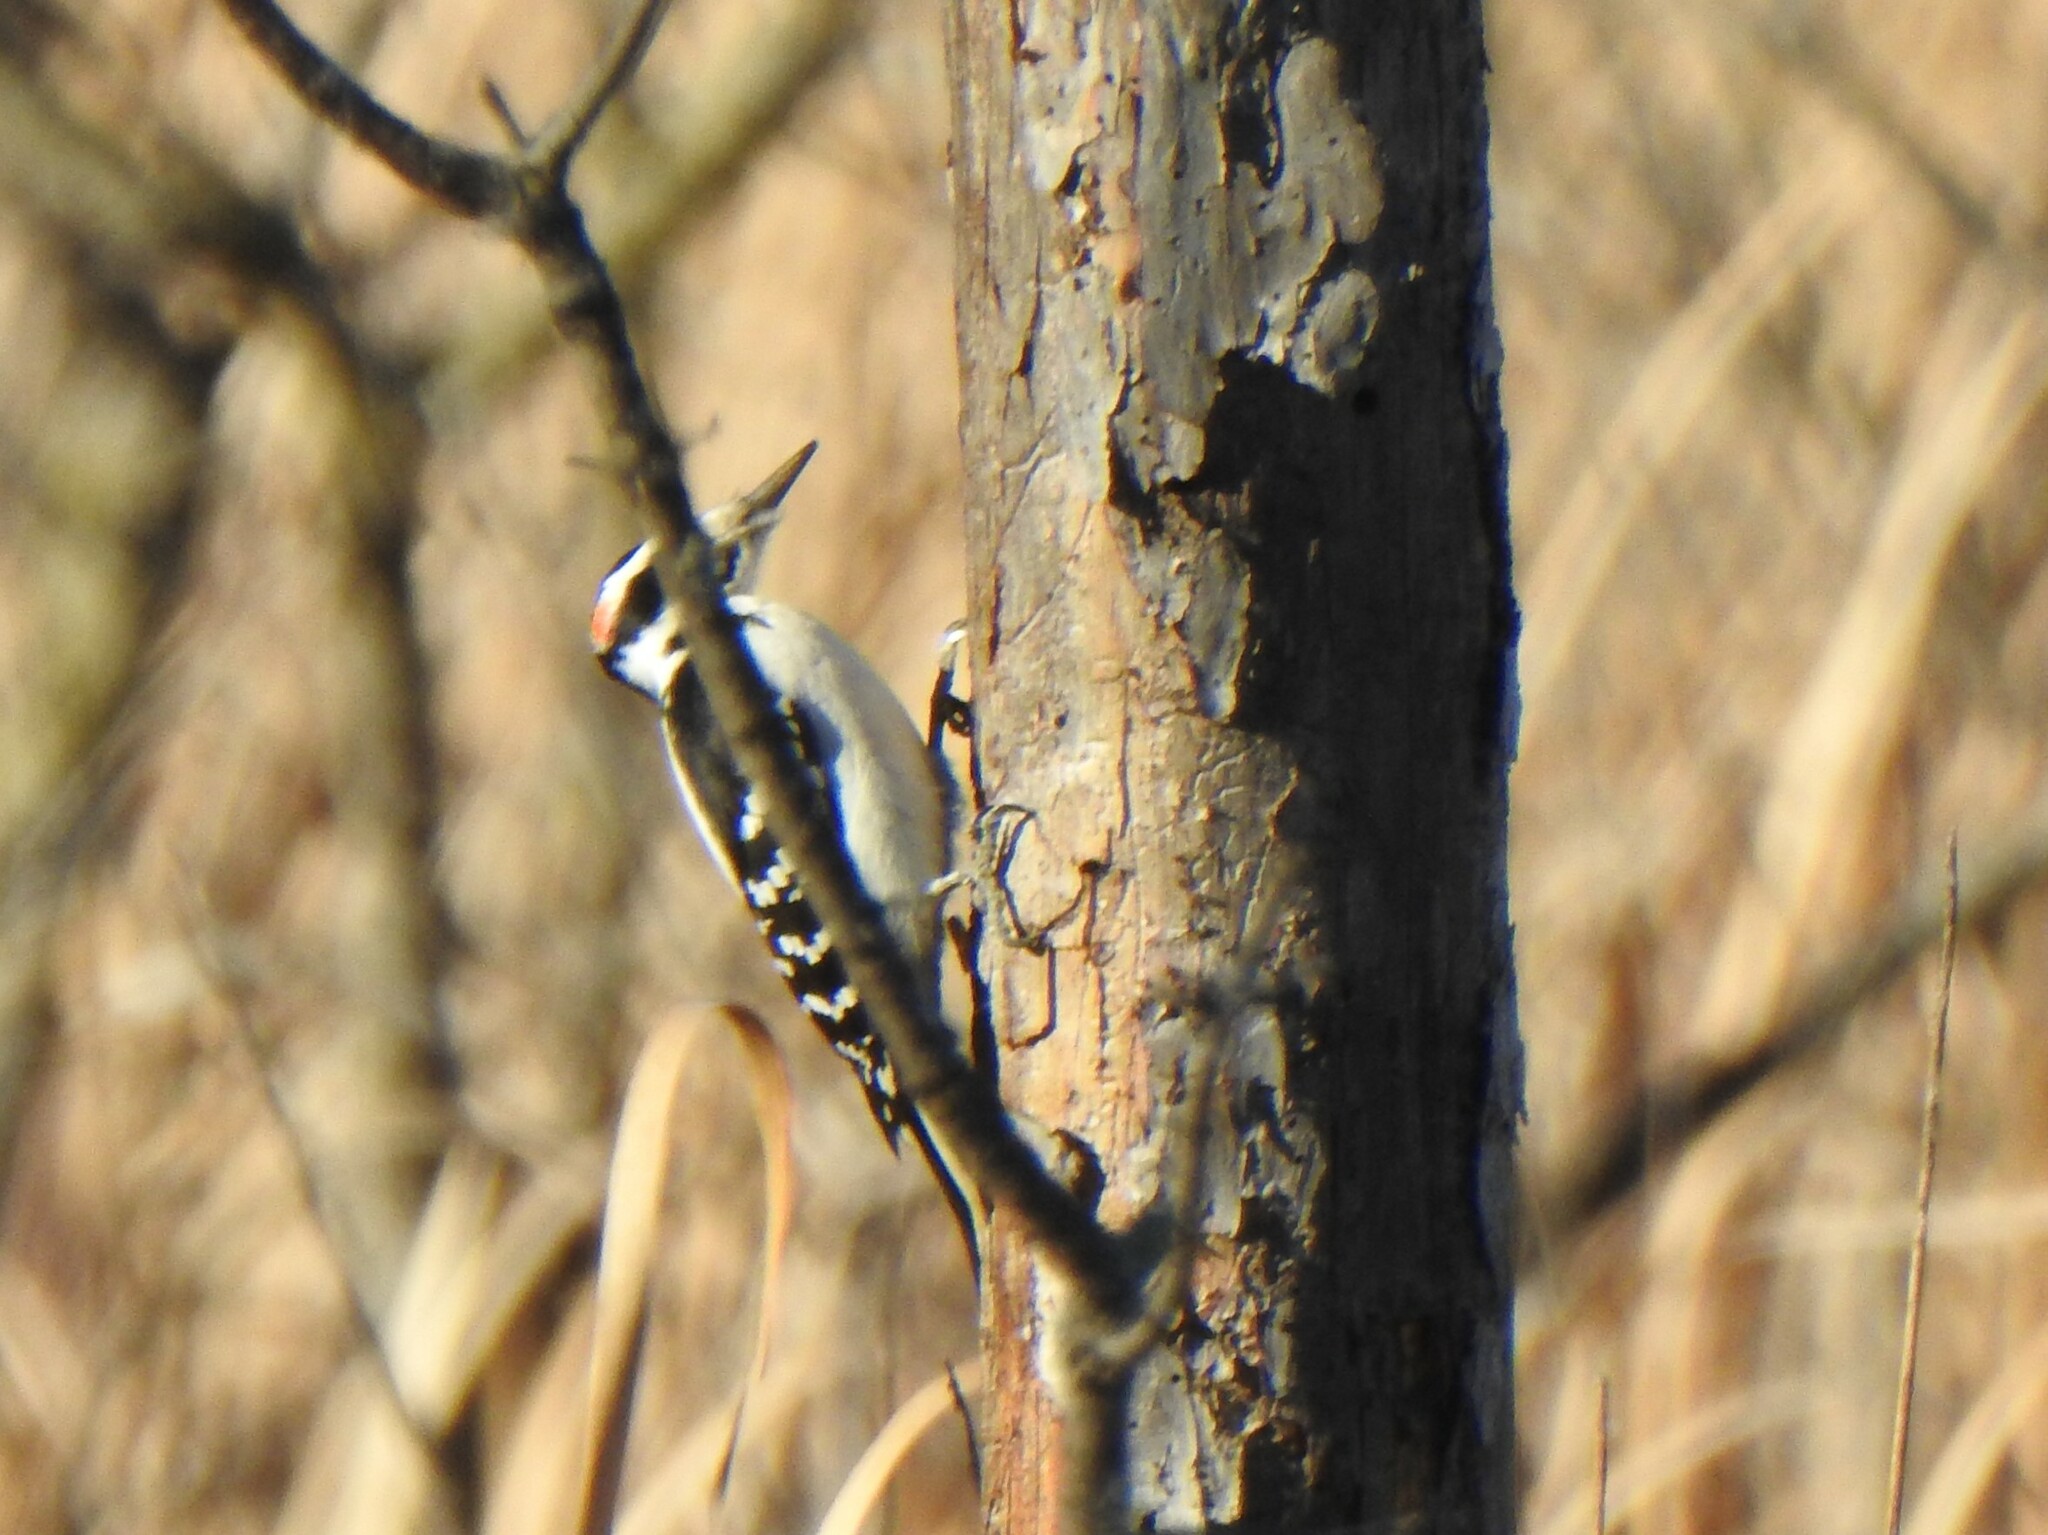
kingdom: Animalia
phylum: Chordata
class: Aves
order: Piciformes
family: Picidae
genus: Leuconotopicus
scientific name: Leuconotopicus villosus
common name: Hairy woodpecker
